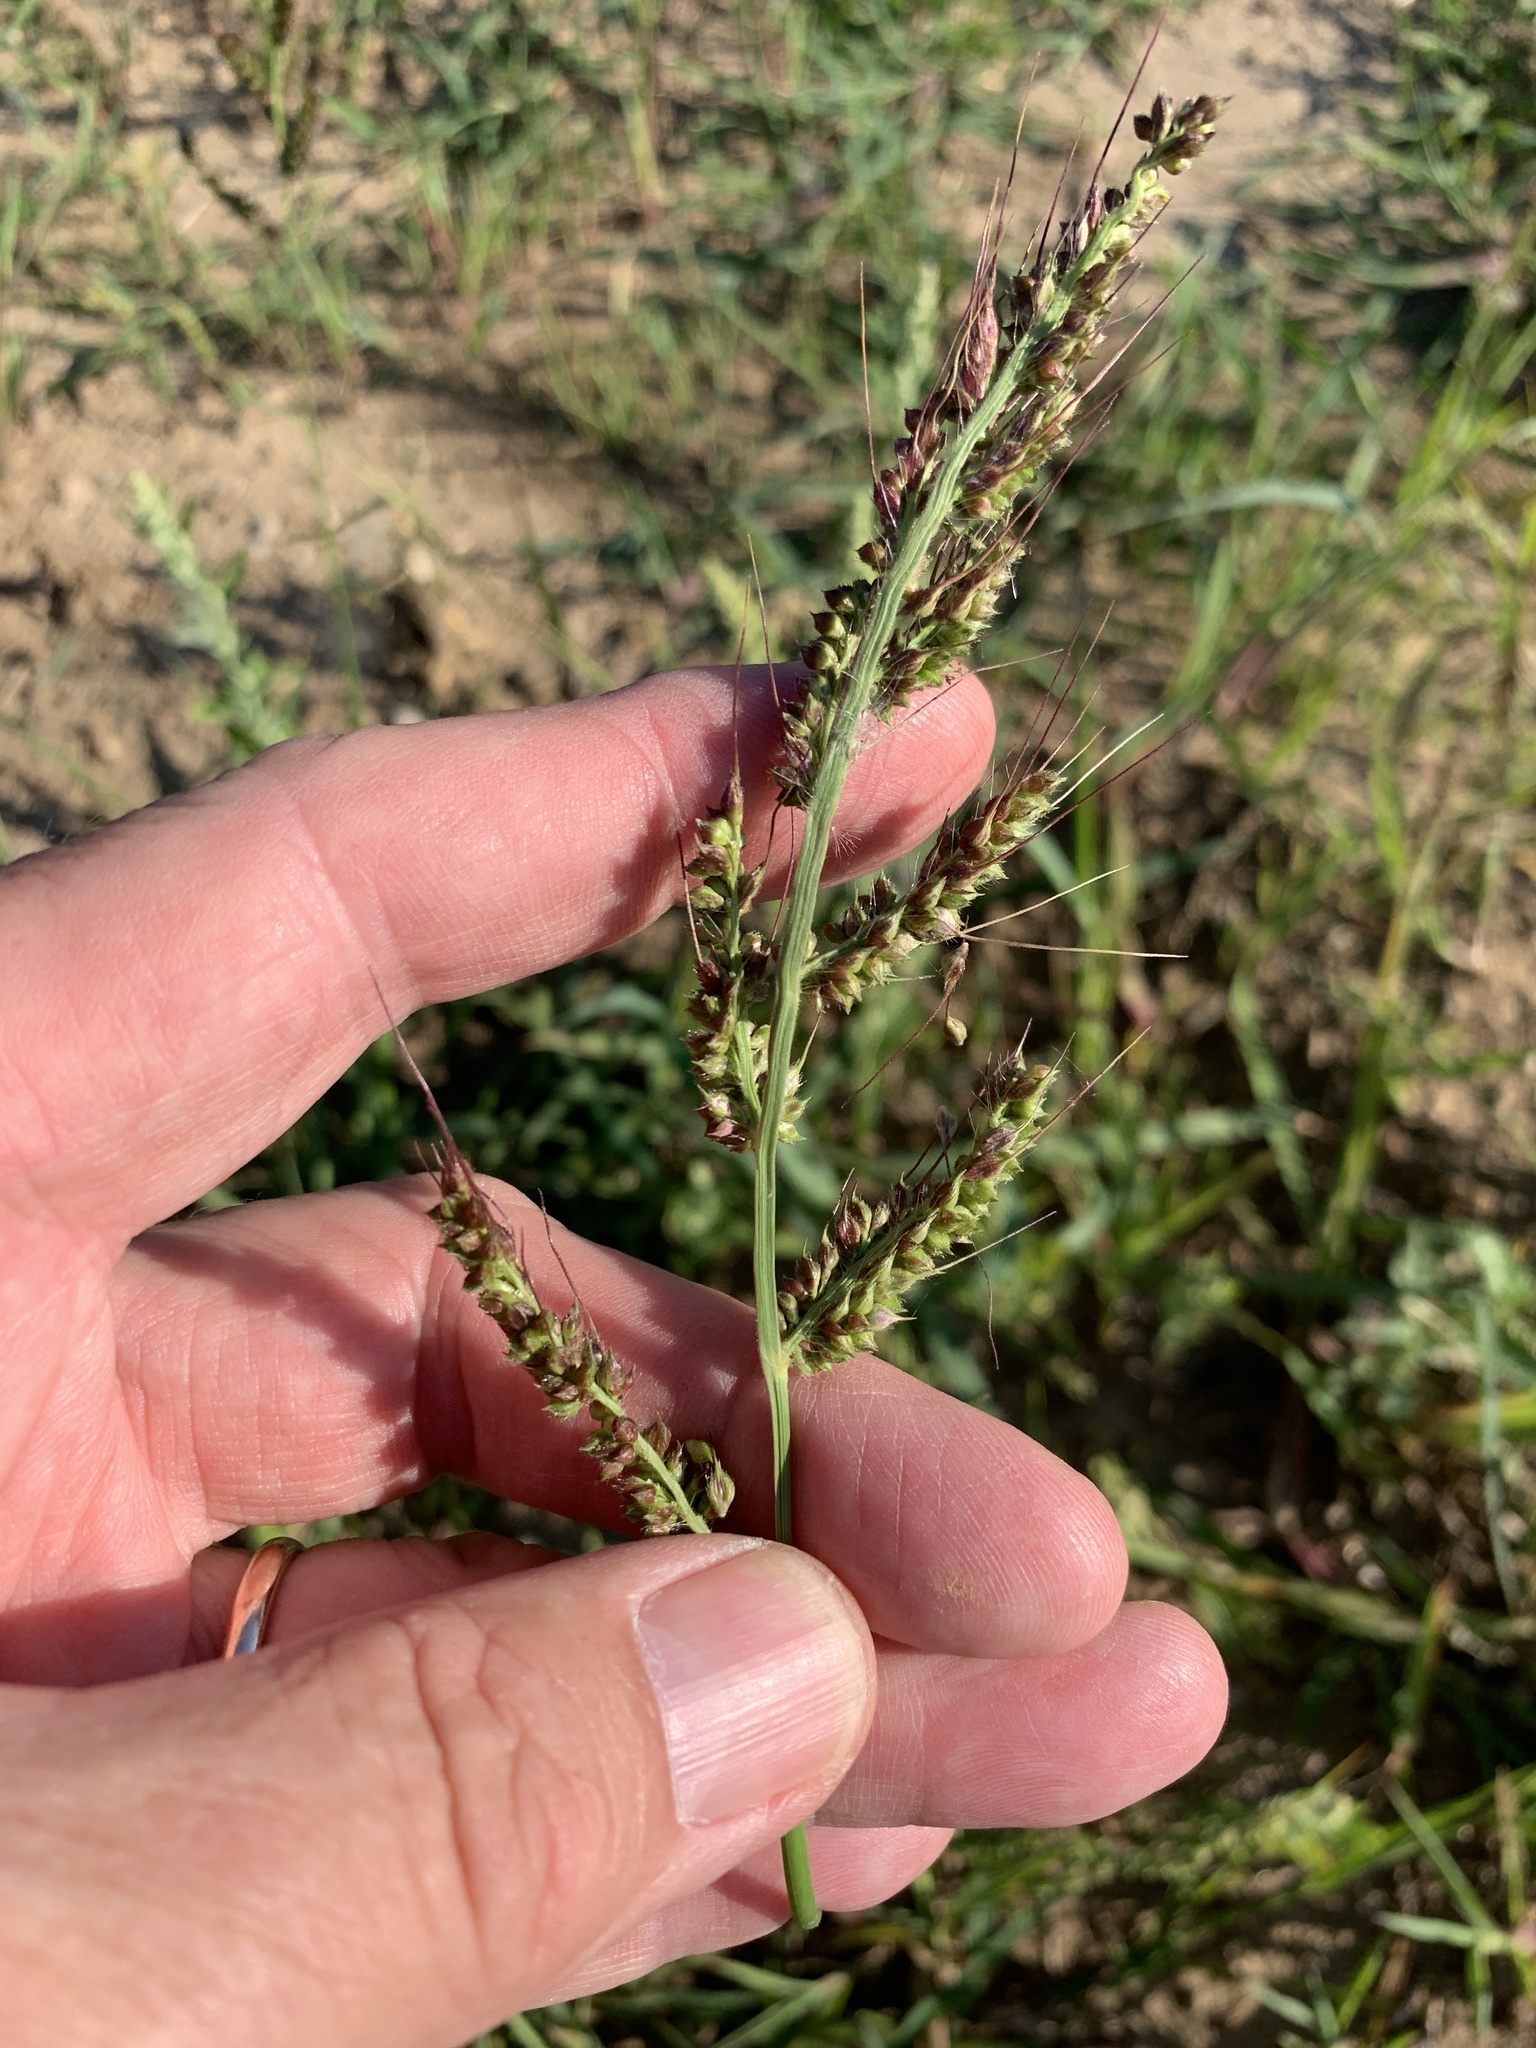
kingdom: Plantae
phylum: Tracheophyta
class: Liliopsida
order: Poales
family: Poaceae
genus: Echinochloa
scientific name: Echinochloa crus-galli
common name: Cockspur
